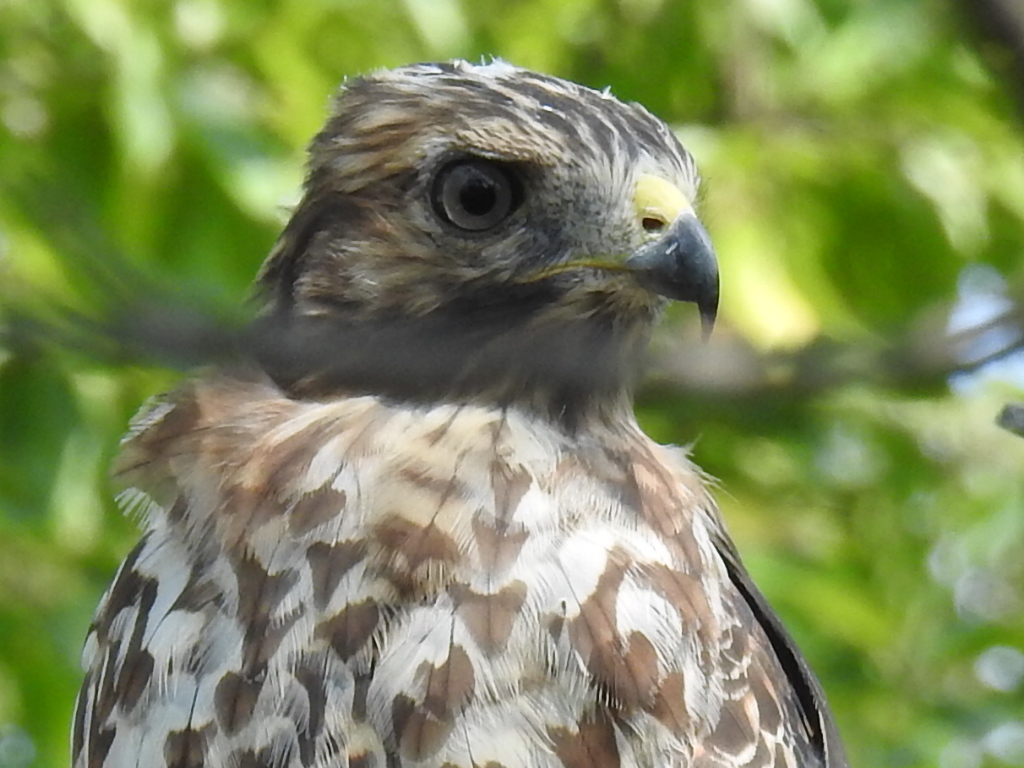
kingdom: Animalia
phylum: Chordata
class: Aves
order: Accipitriformes
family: Accipitridae
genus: Buteo
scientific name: Buteo lineatus
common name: Red-shouldered hawk
